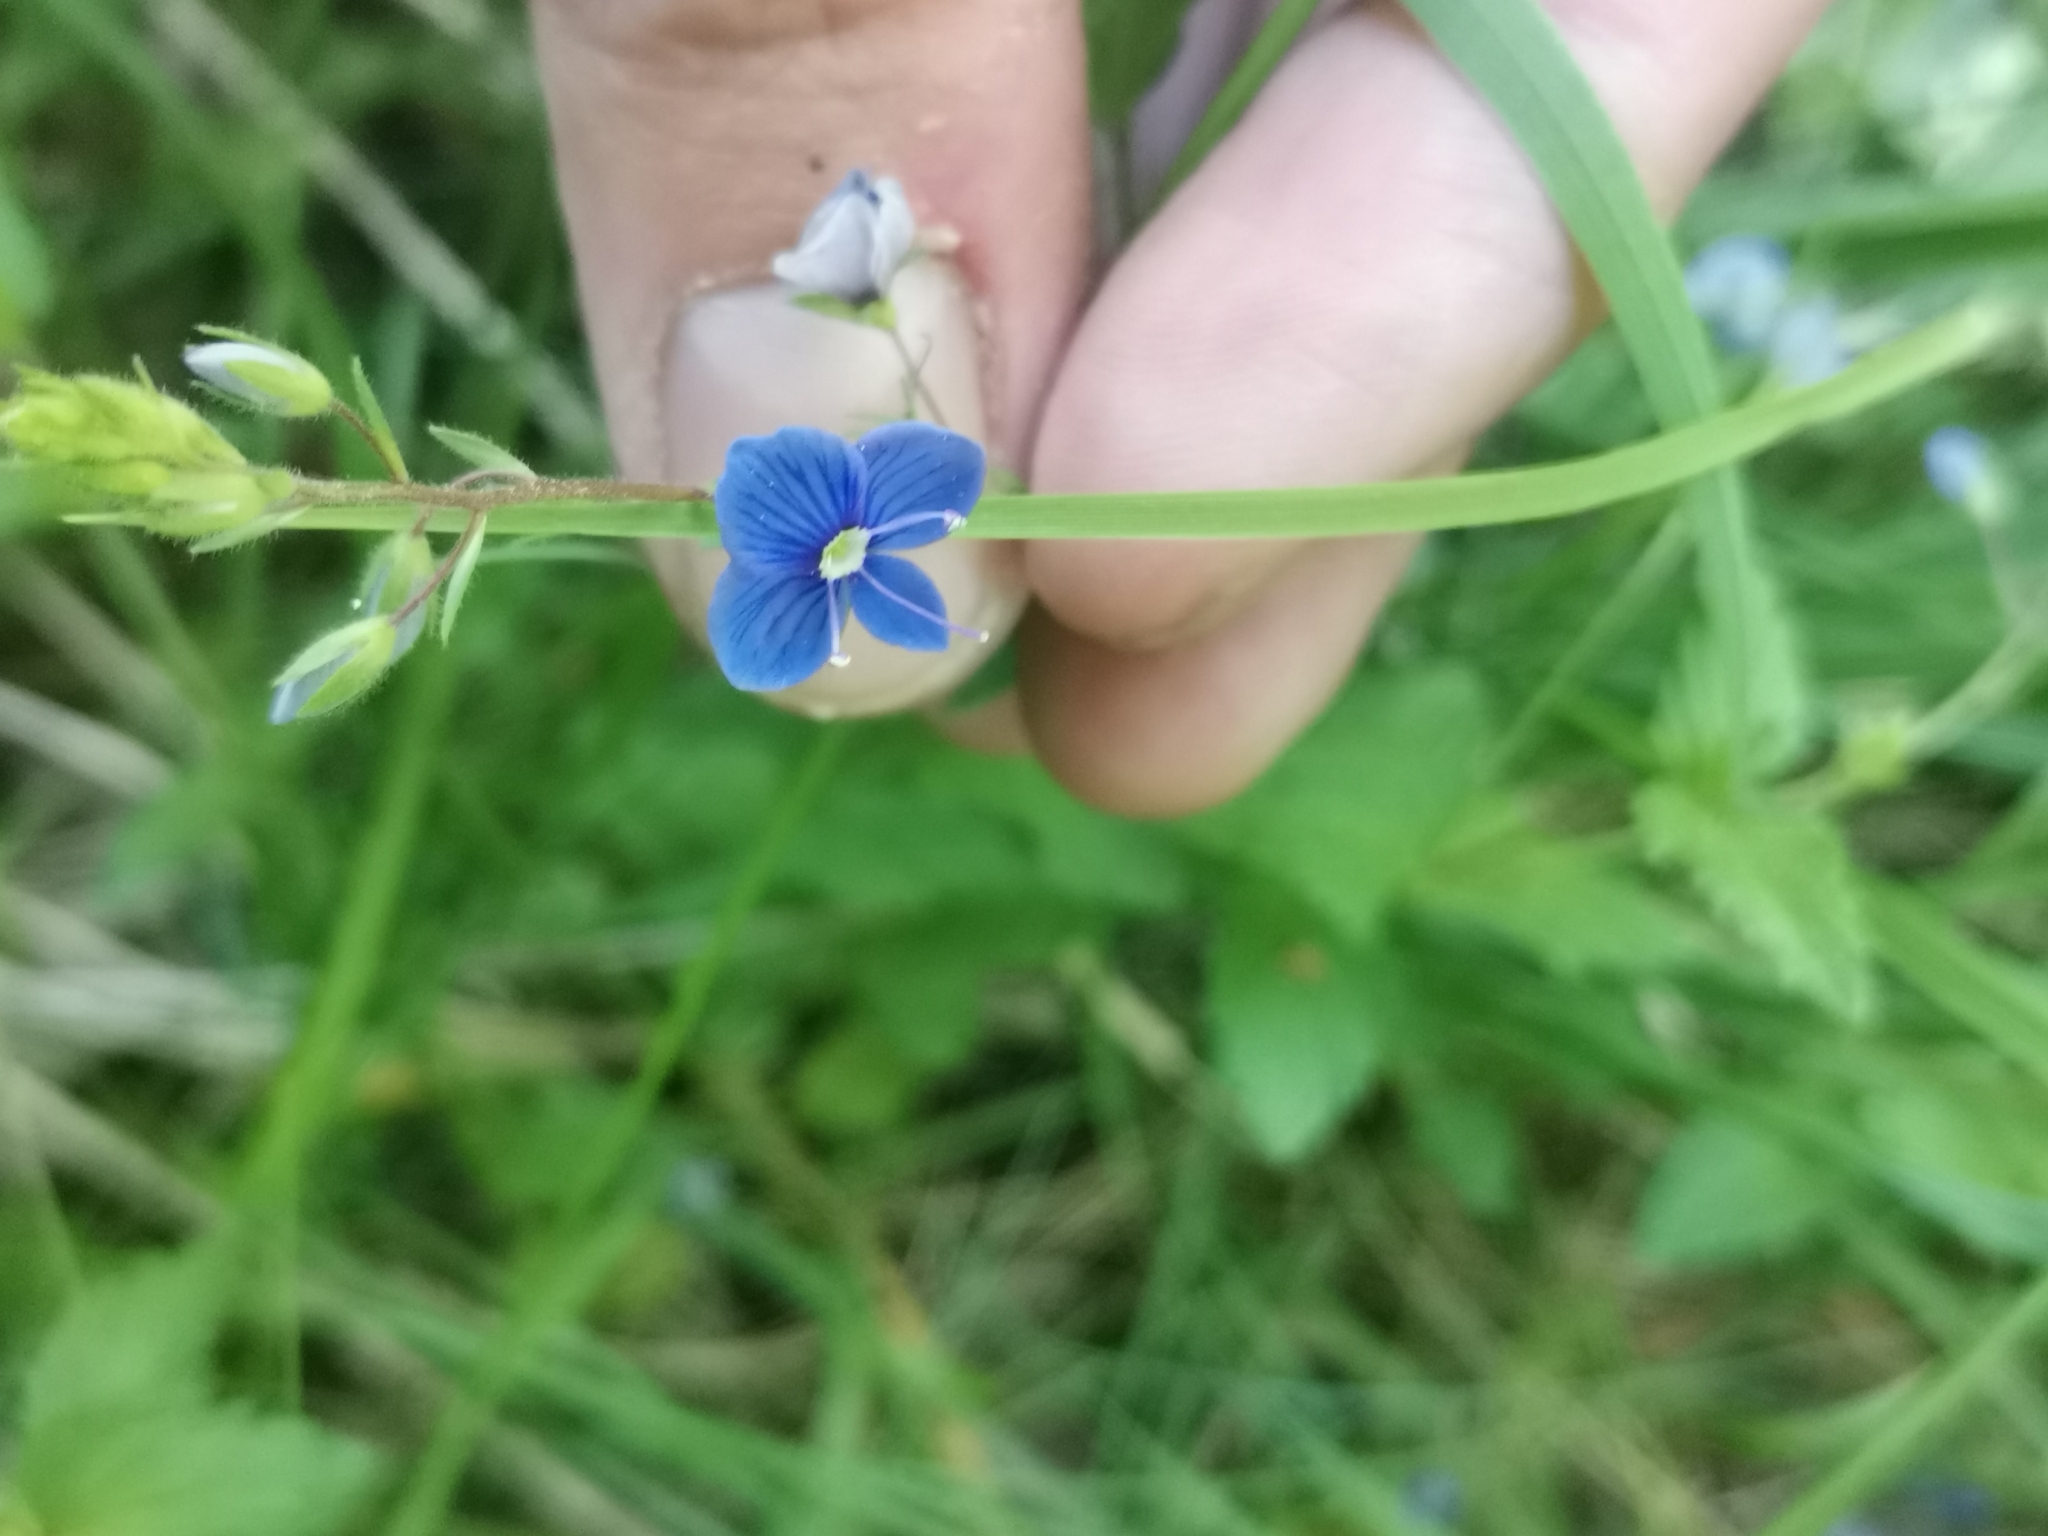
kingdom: Plantae
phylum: Tracheophyta
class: Magnoliopsida
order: Lamiales
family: Plantaginaceae
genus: Veronica
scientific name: Veronica chamaedrys
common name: Germander speedwell
